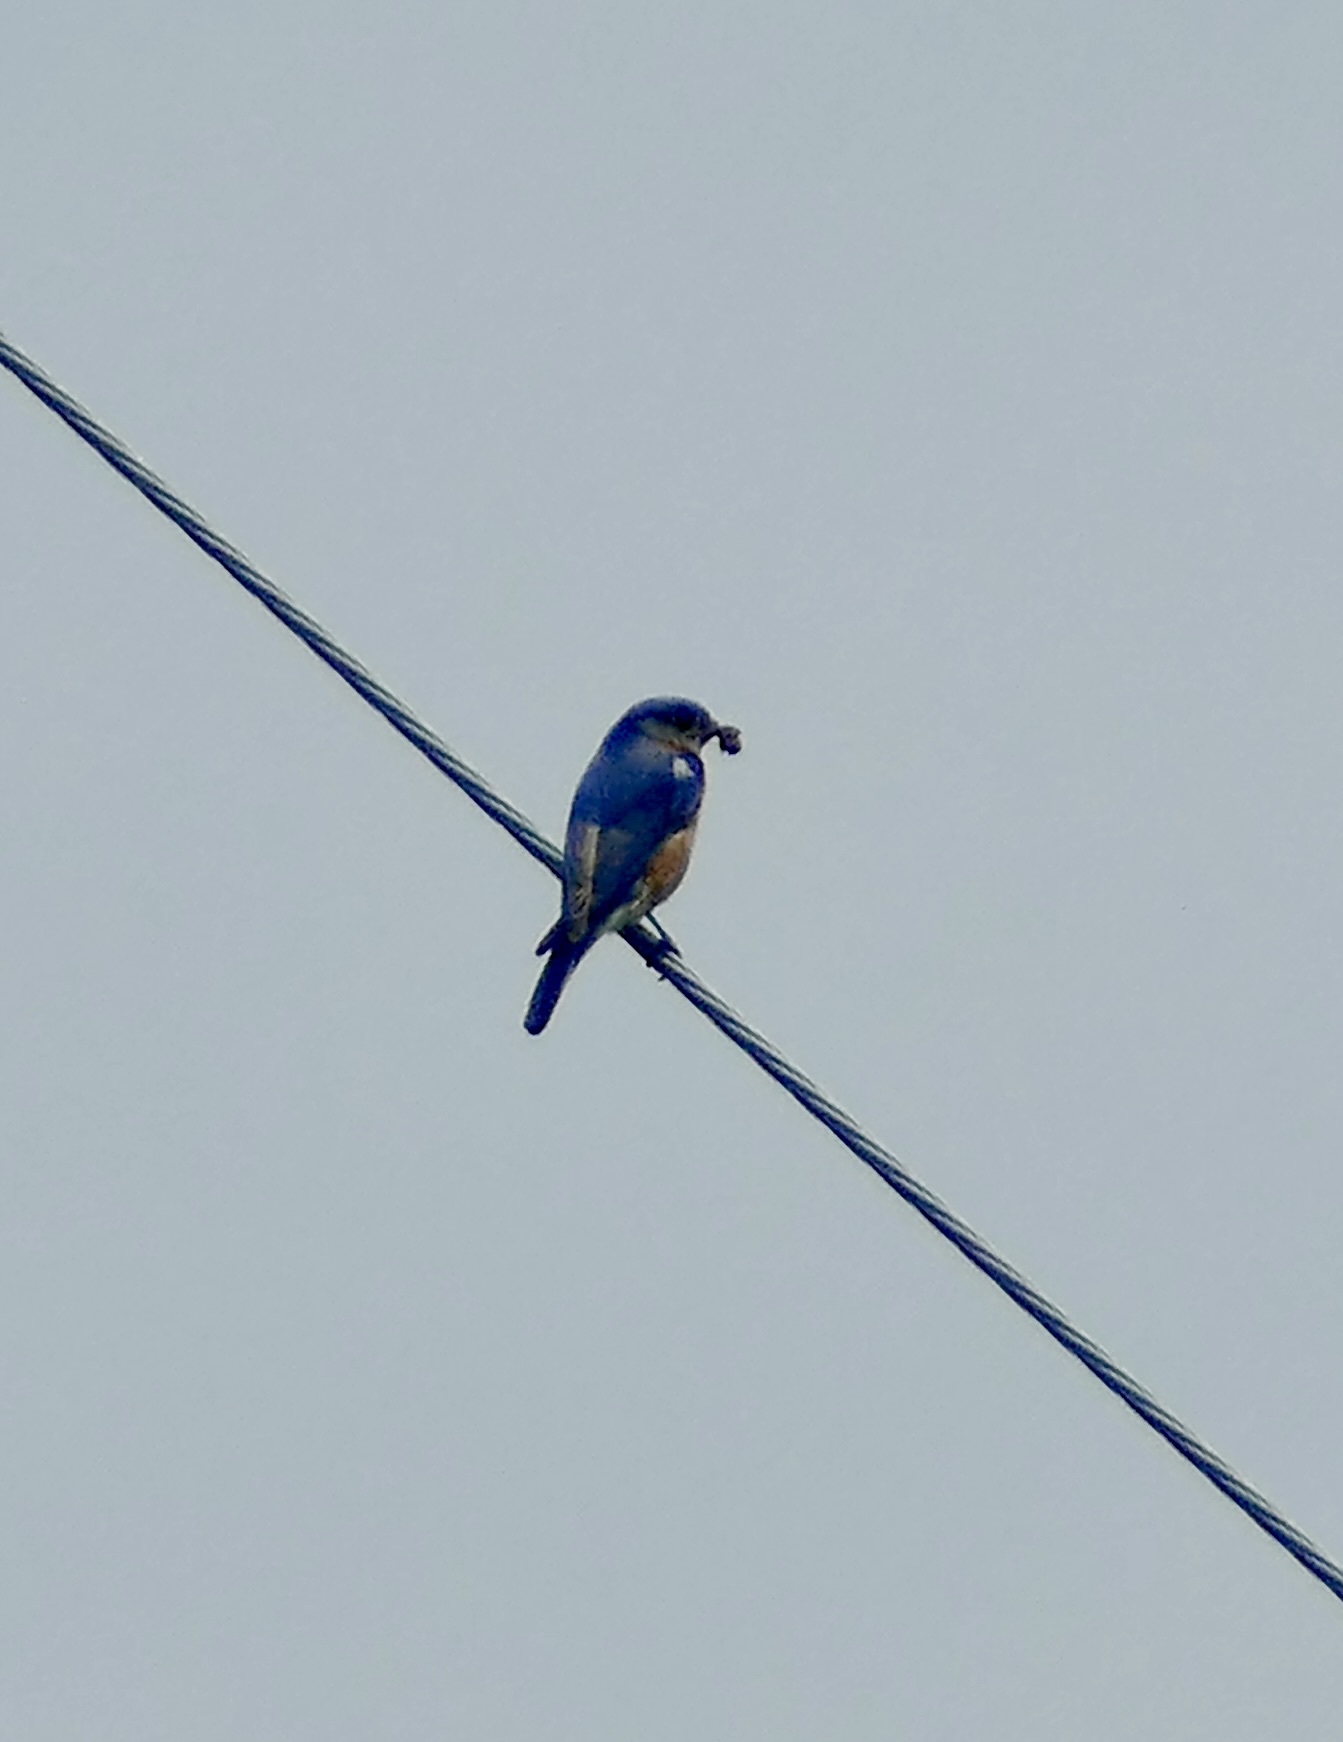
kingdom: Animalia
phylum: Chordata
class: Aves
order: Passeriformes
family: Turdidae
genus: Sialia
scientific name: Sialia sialis
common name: Eastern bluebird
